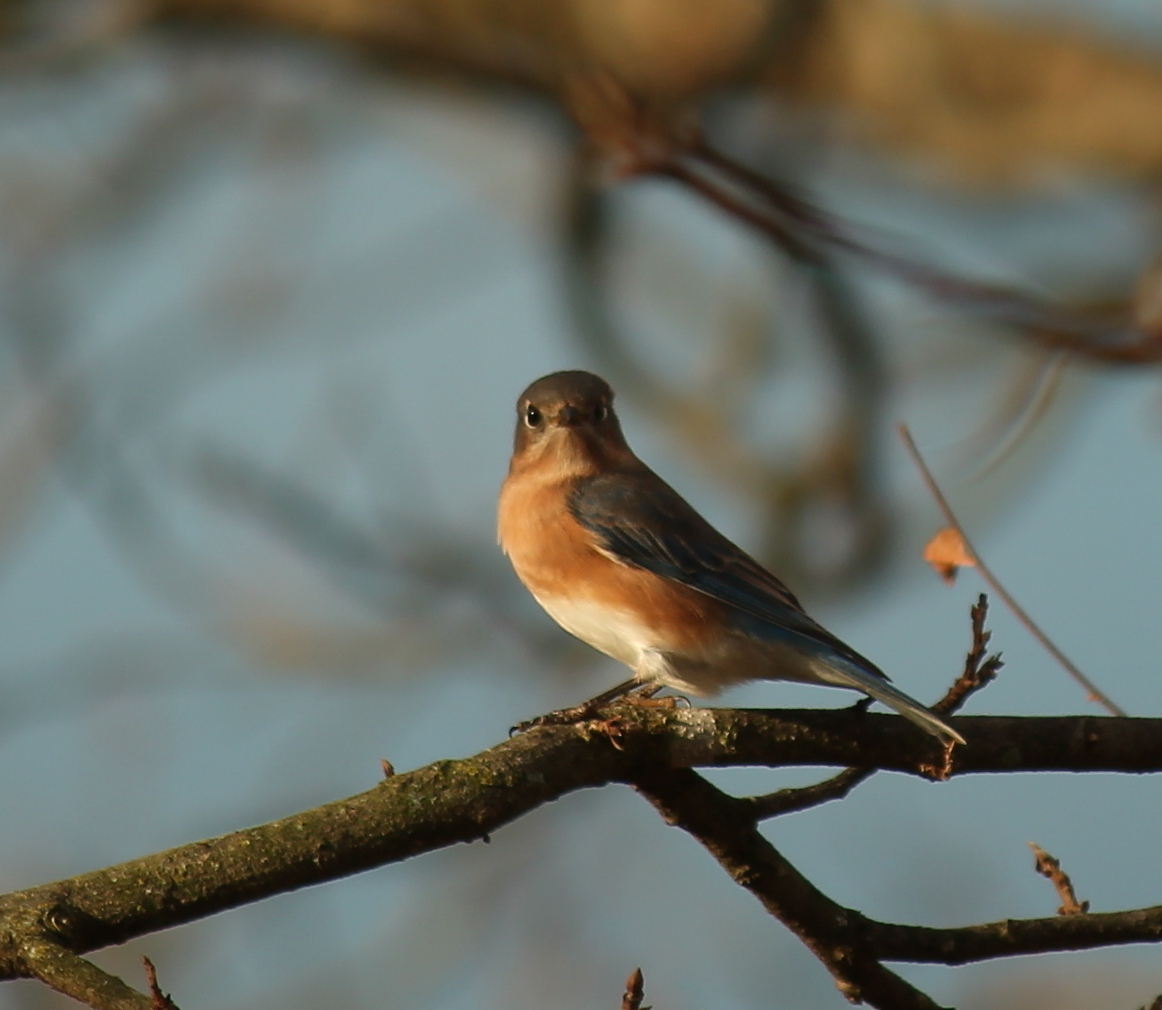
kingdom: Animalia
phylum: Chordata
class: Aves
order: Passeriformes
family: Turdidae
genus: Sialia
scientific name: Sialia sialis
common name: Eastern bluebird
